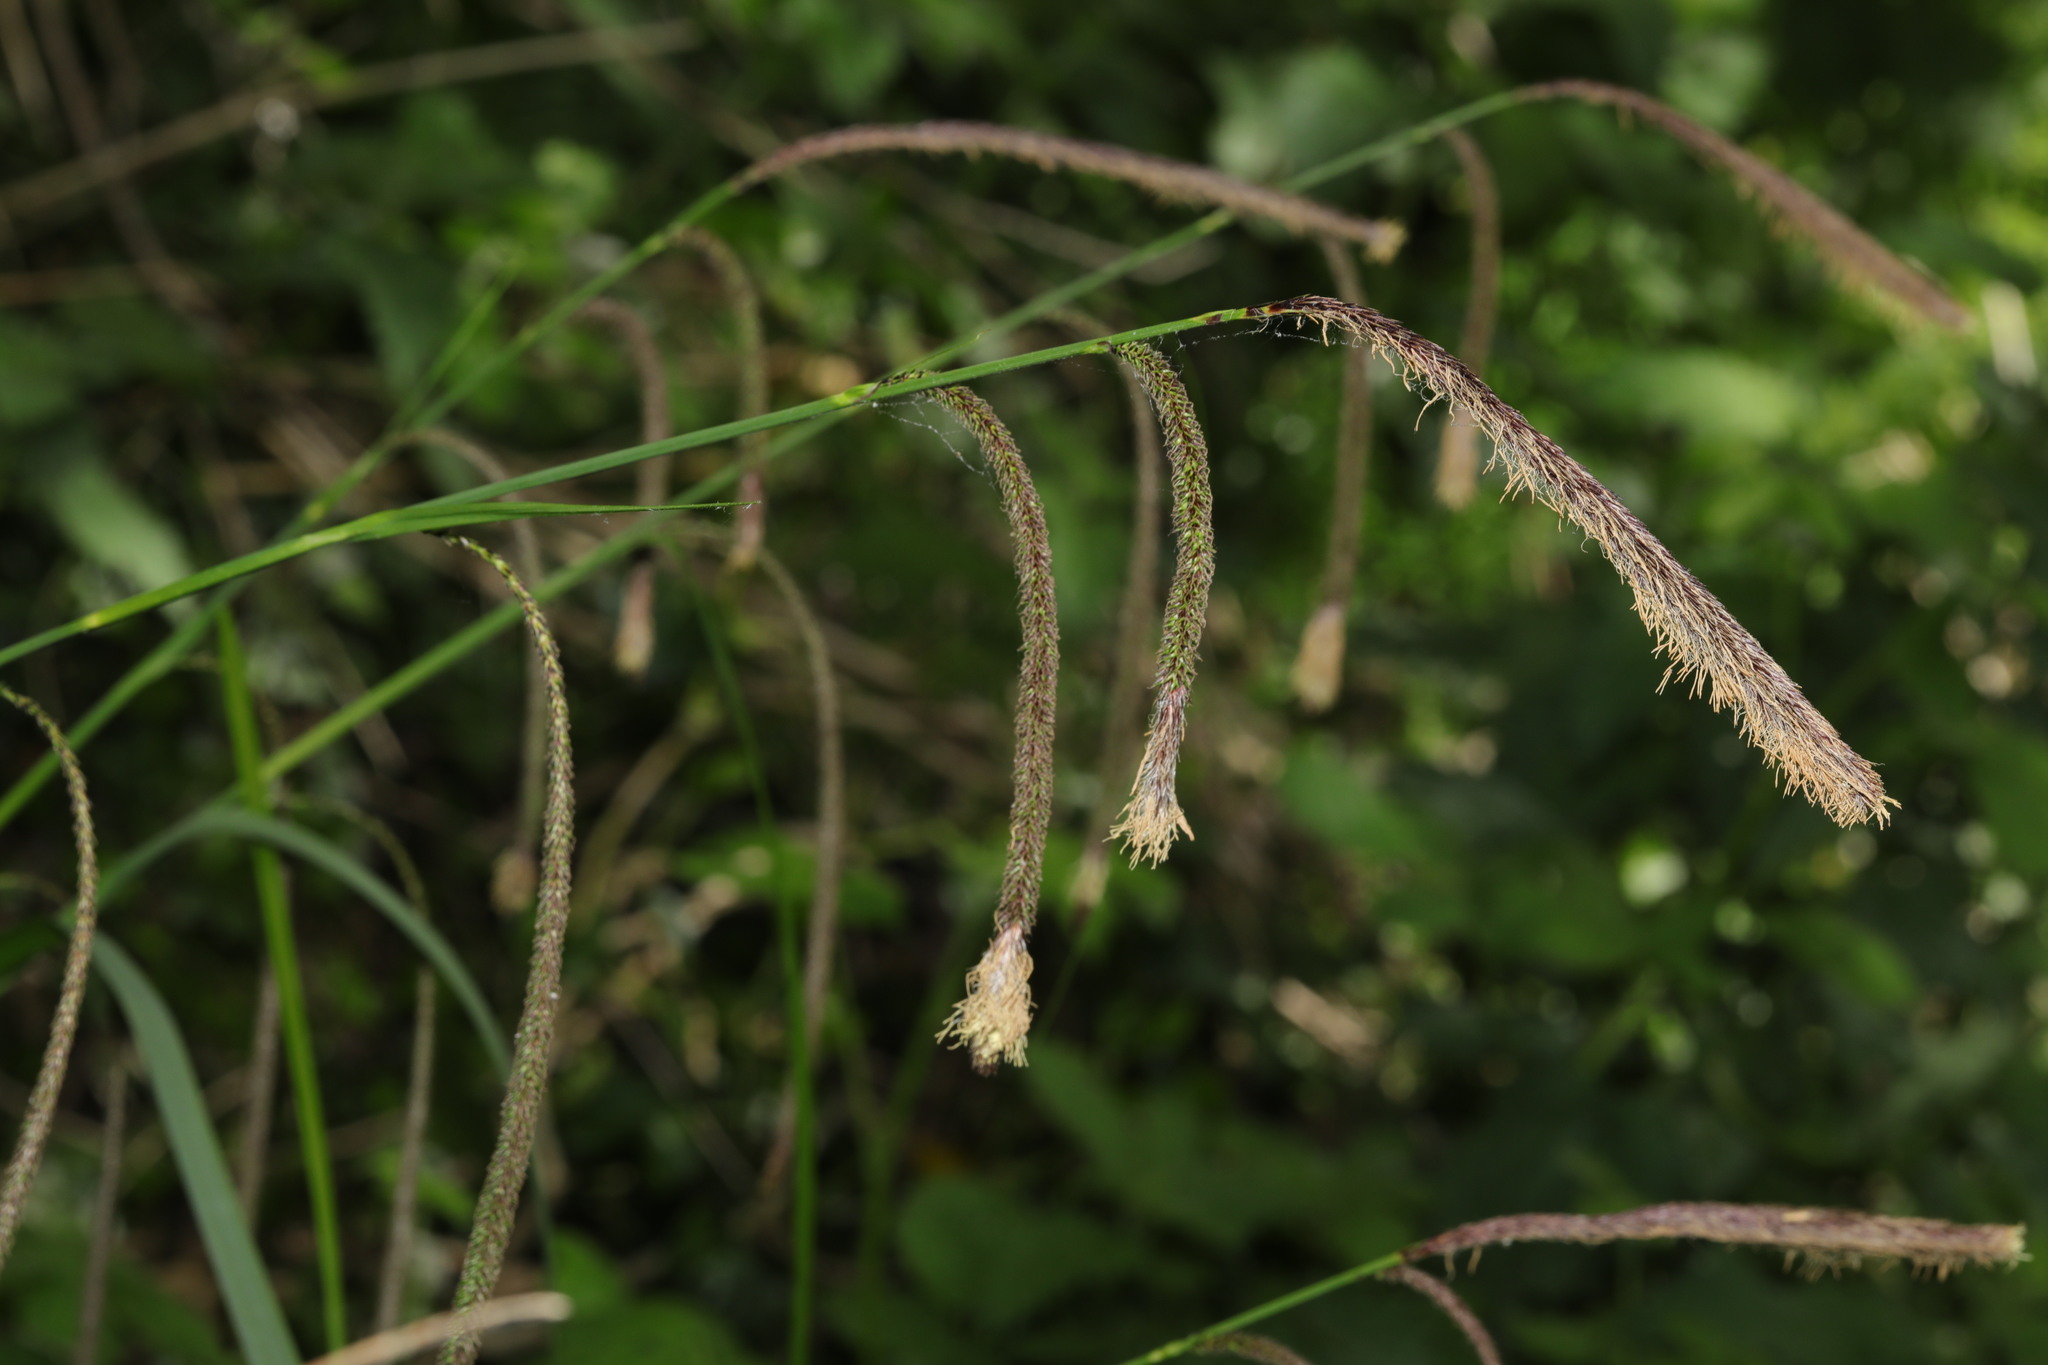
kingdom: Plantae
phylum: Tracheophyta
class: Liliopsida
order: Poales
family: Cyperaceae
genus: Carex
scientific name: Carex pendula
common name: Pendulous sedge
